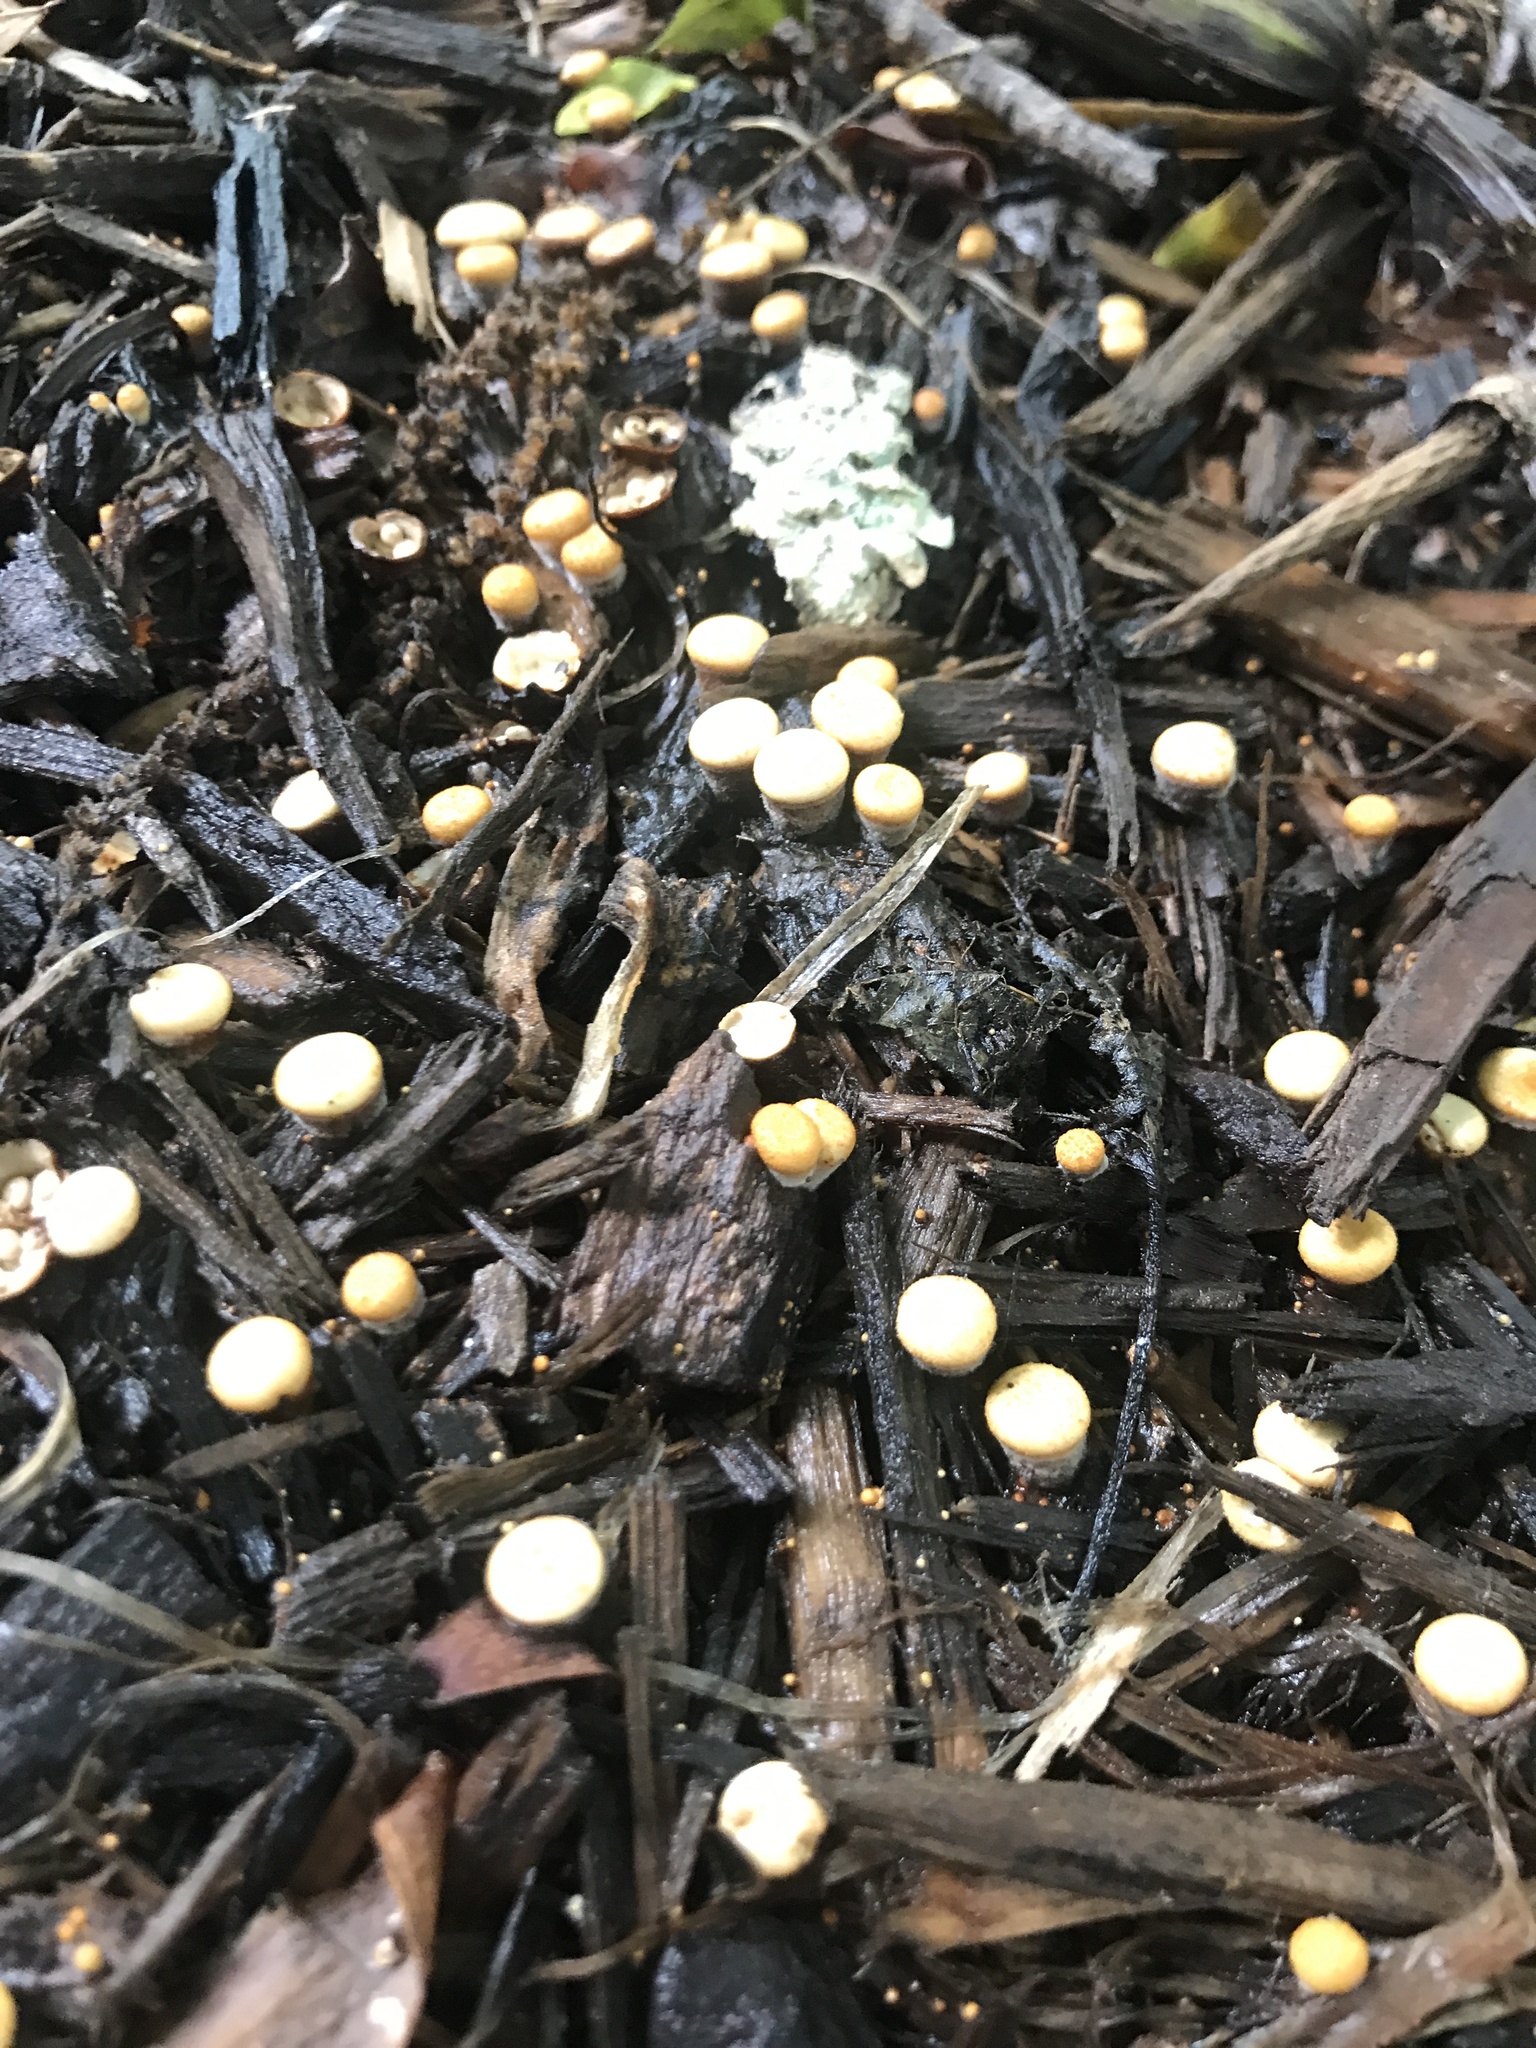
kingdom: Fungi
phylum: Basidiomycota
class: Agaricomycetes
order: Agaricales
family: Nidulariaceae
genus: Crucibulum
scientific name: Crucibulum laeve
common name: Common bird's nest
